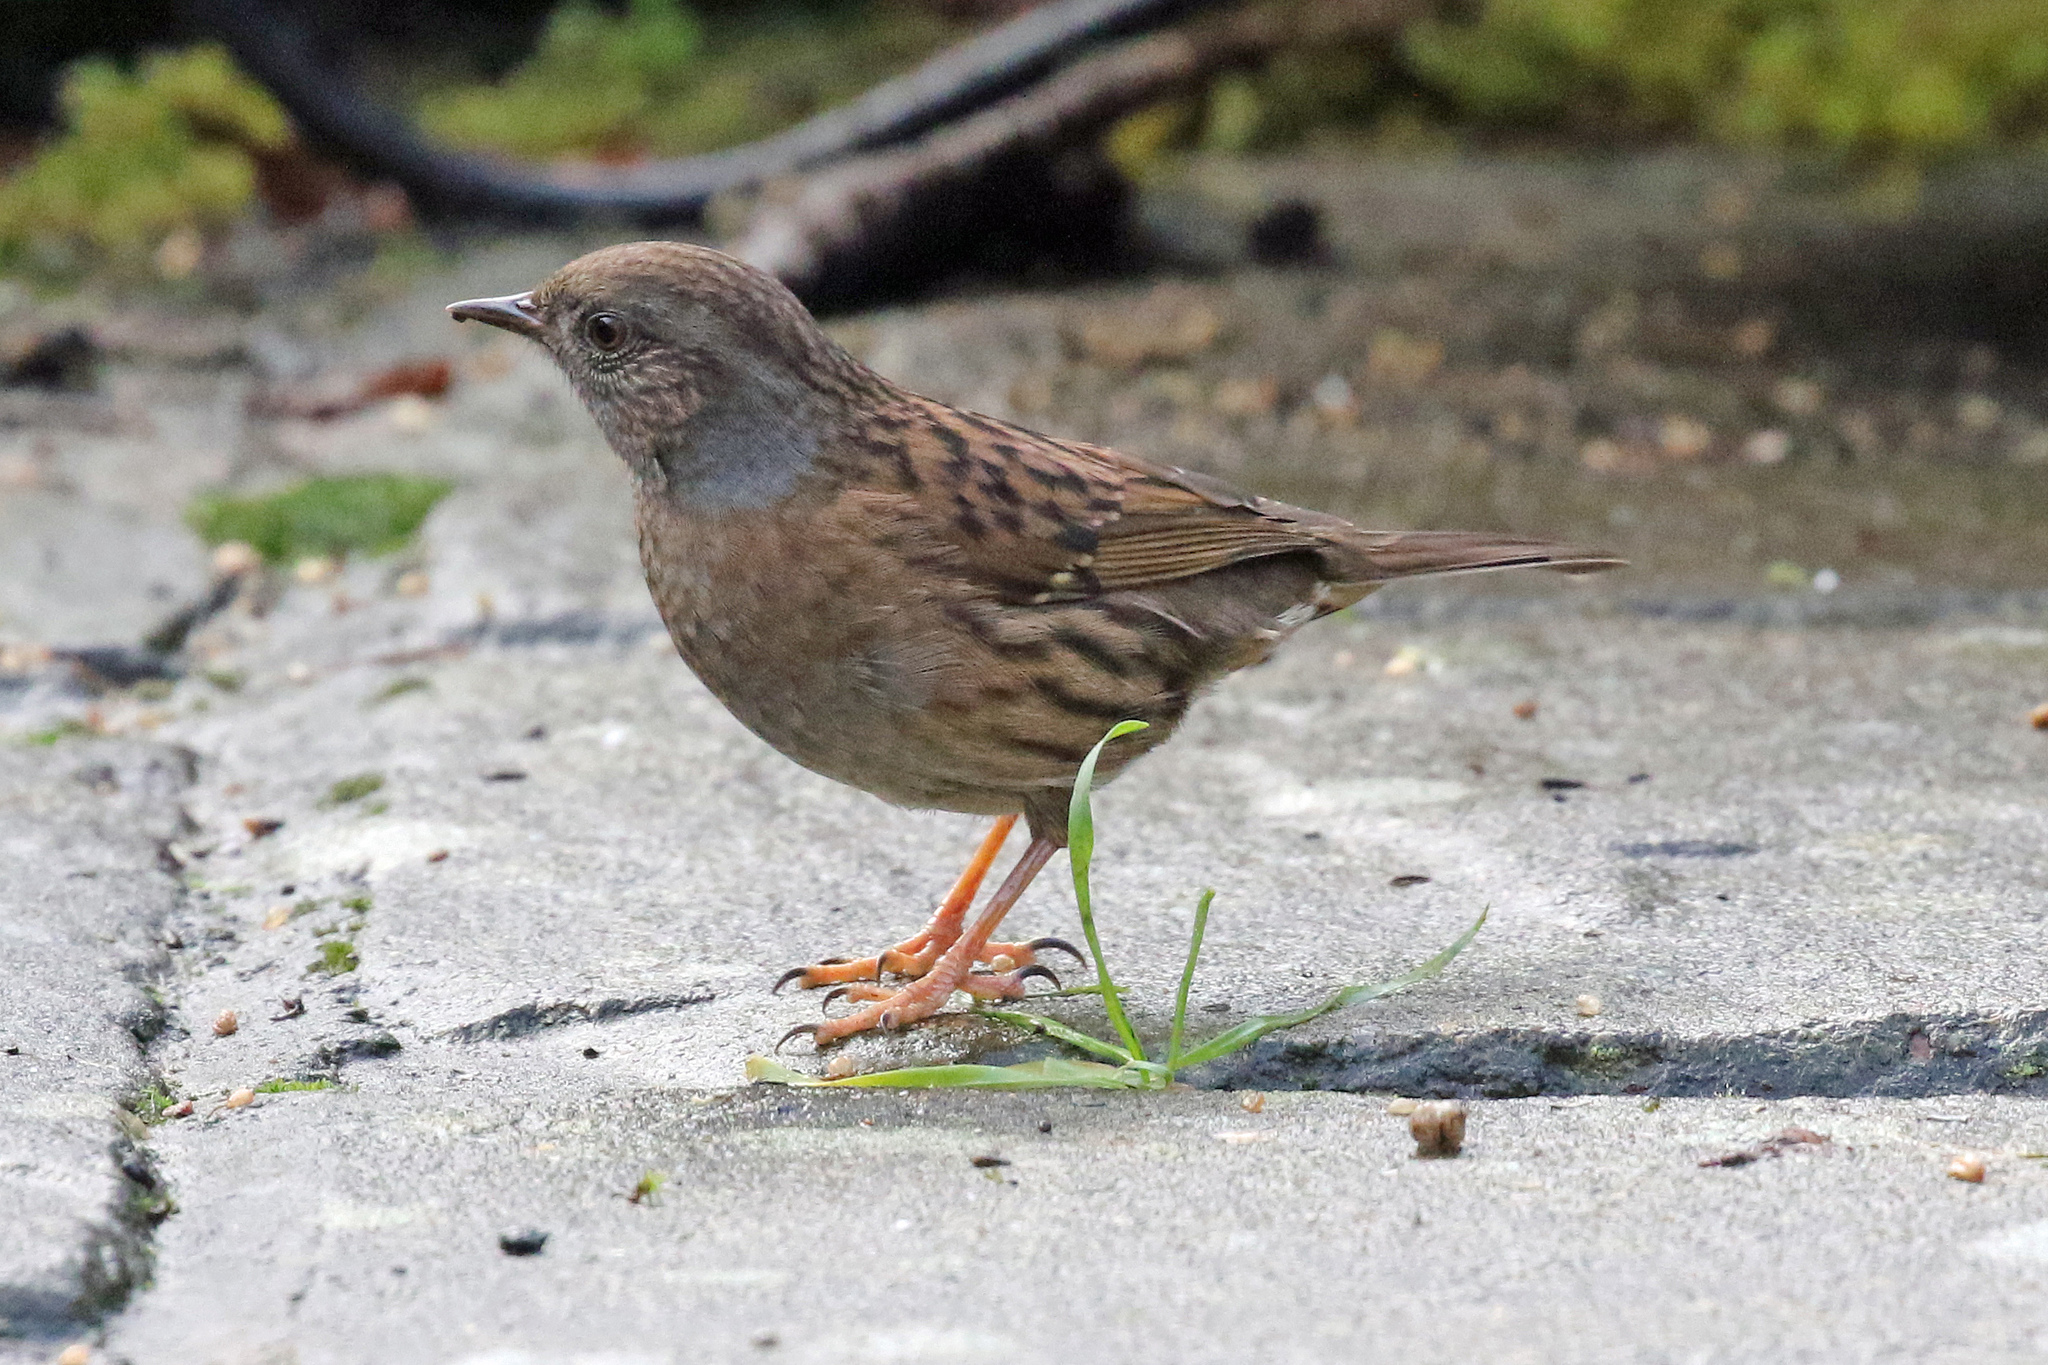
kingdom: Animalia
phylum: Chordata
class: Aves
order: Passeriformes
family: Prunellidae
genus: Prunella
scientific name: Prunella modularis
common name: Dunnock
